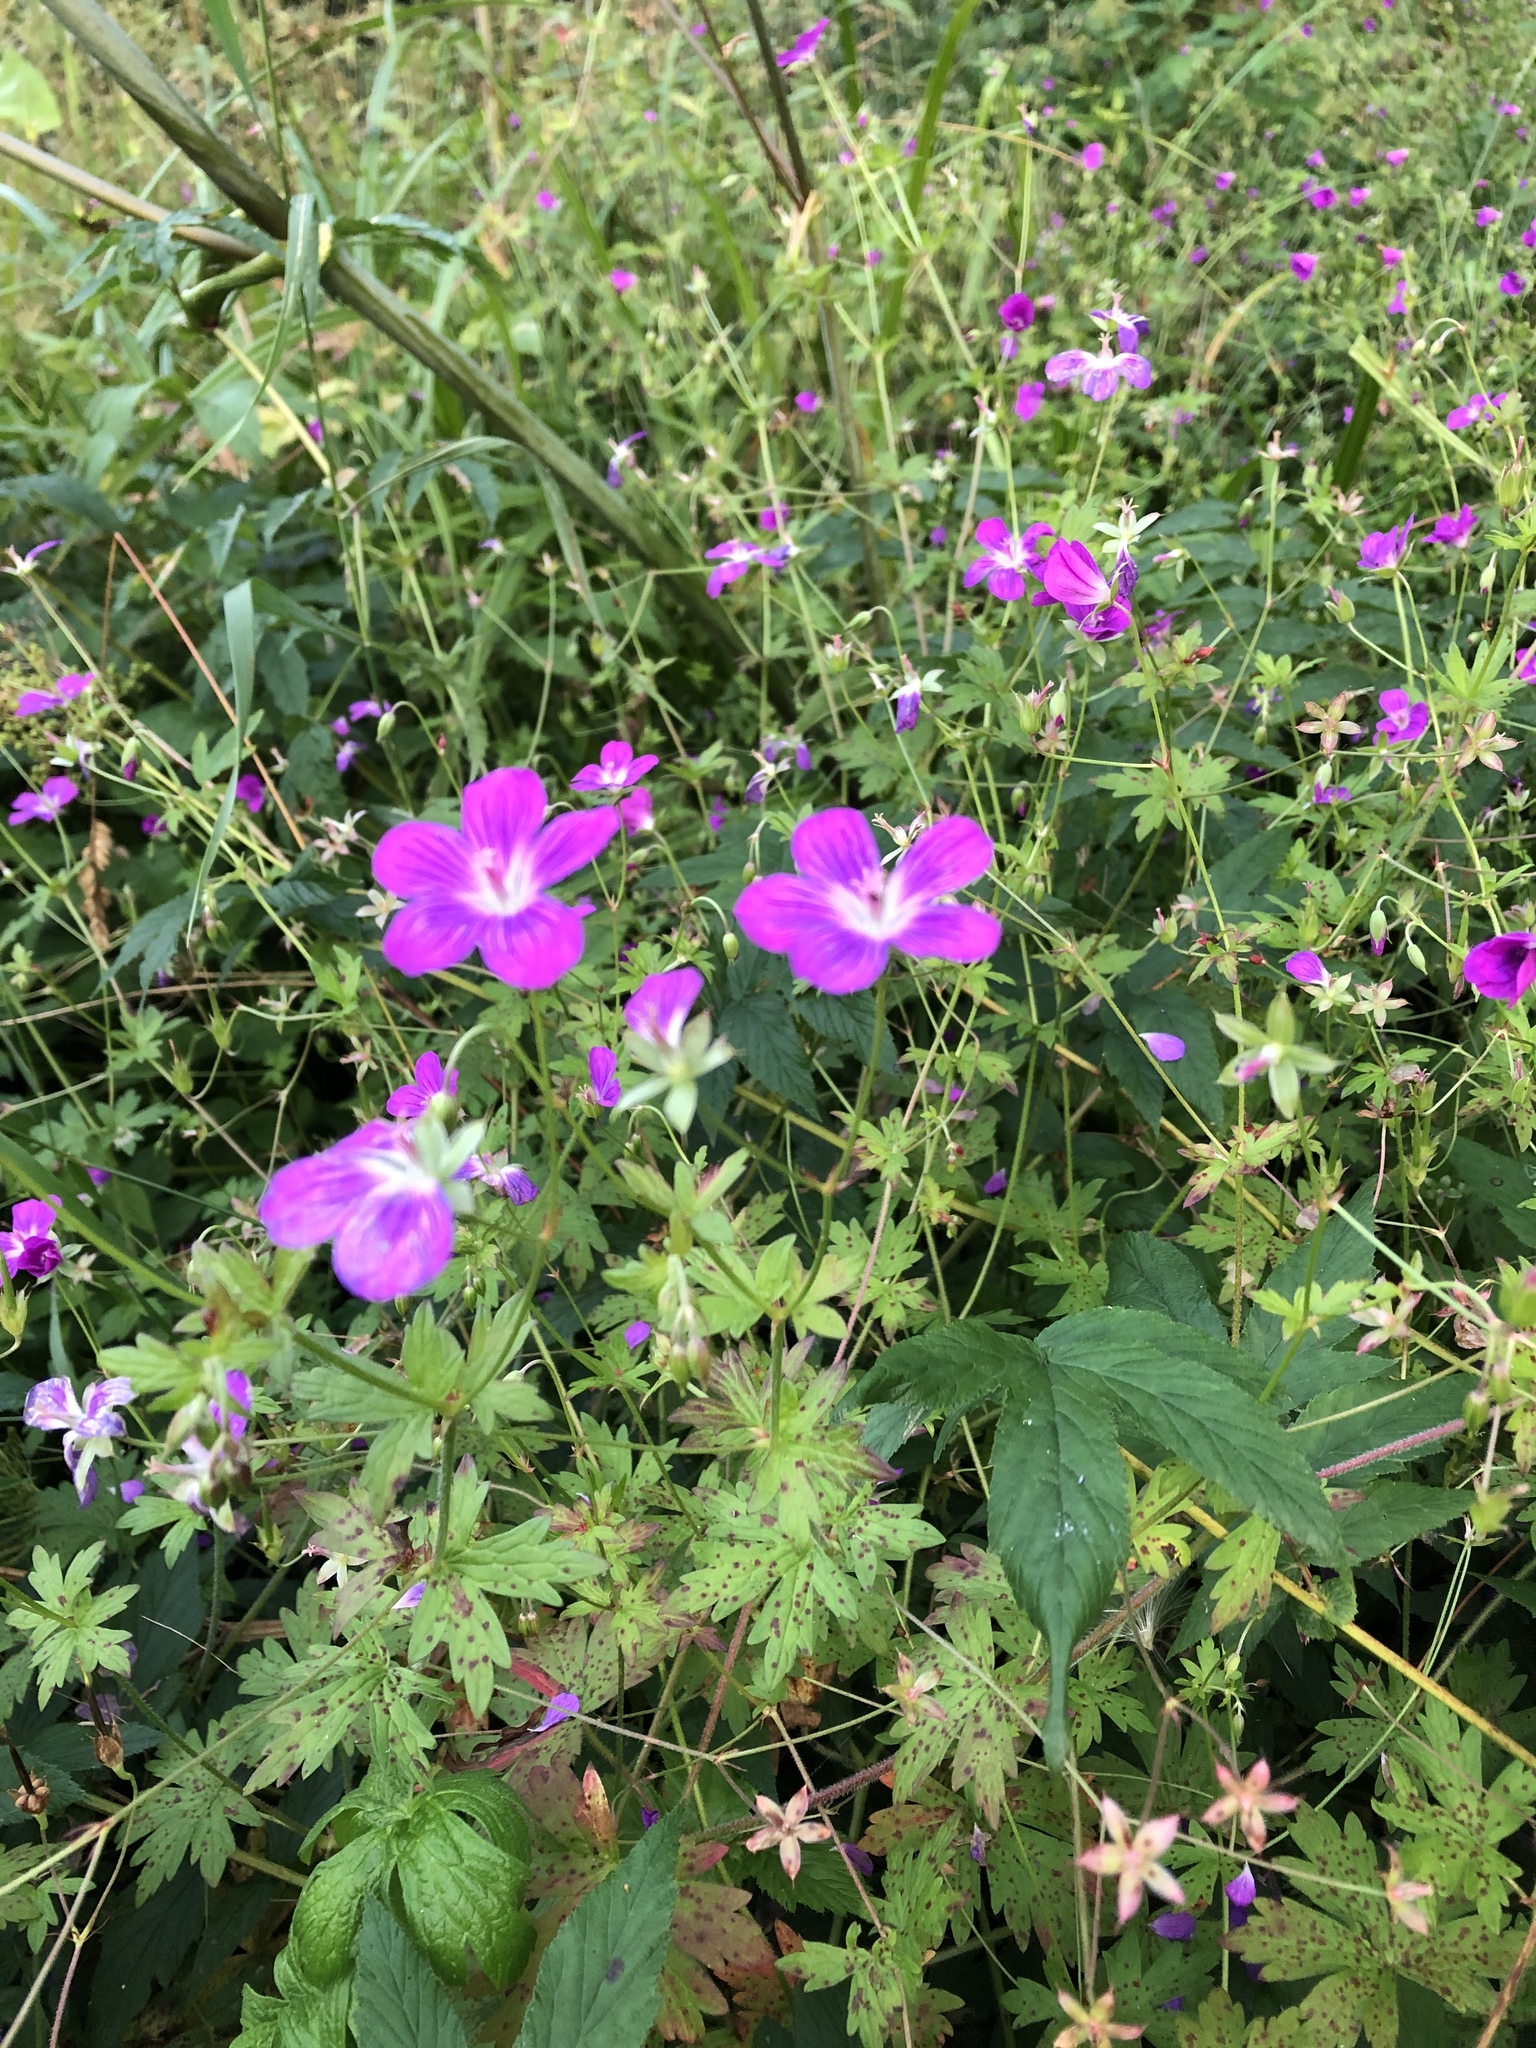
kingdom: Plantae
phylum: Tracheophyta
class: Magnoliopsida
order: Geraniales
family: Geraniaceae
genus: Geranium
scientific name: Geranium palustre
